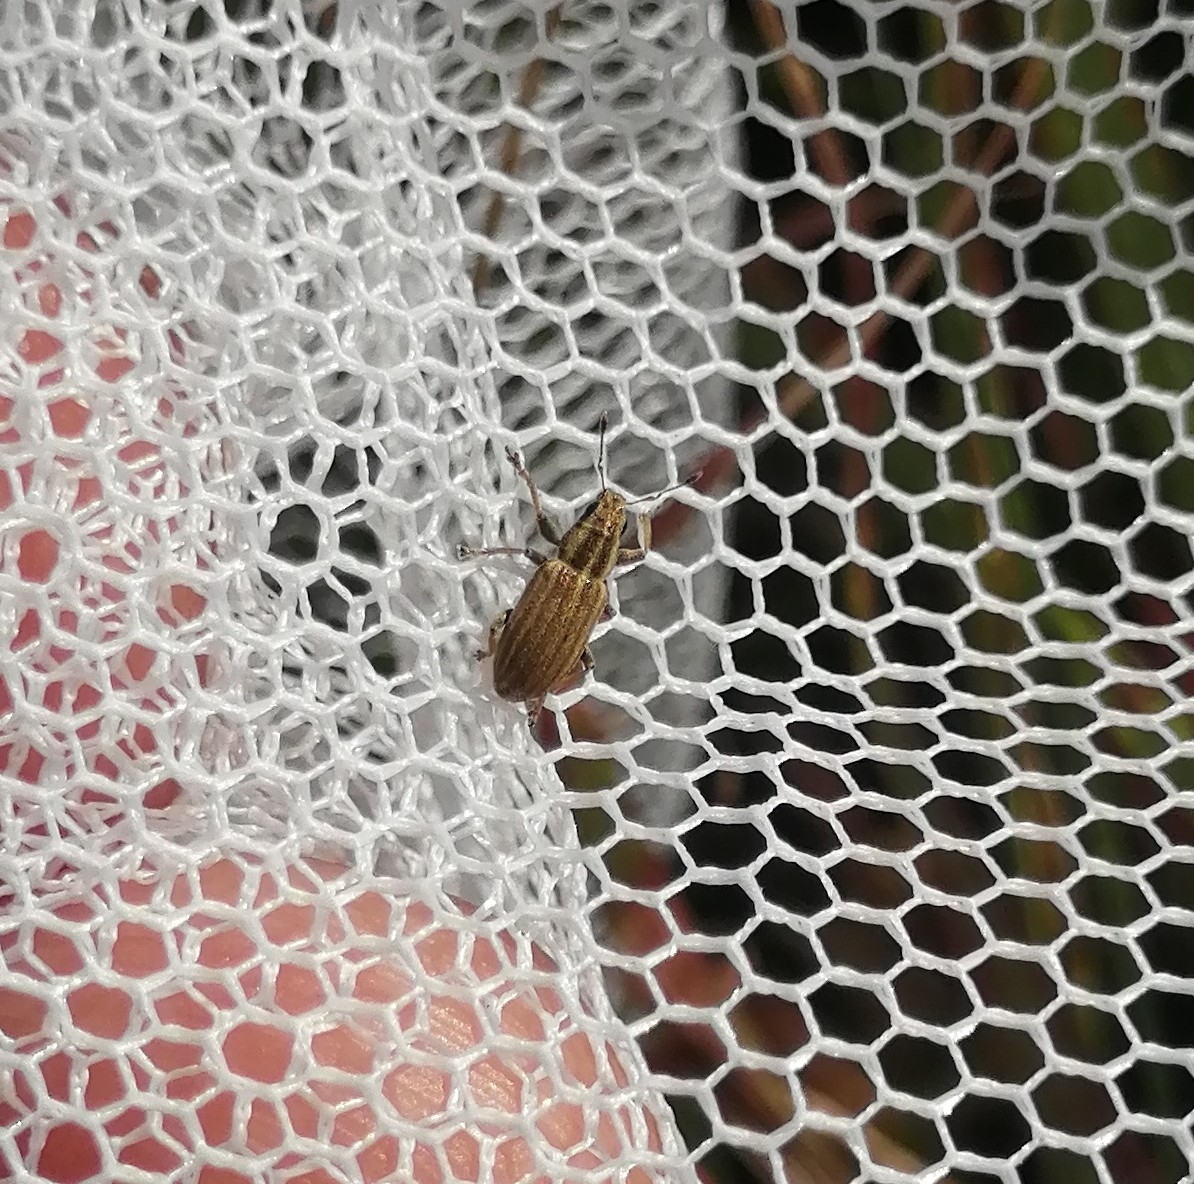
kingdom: Animalia
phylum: Arthropoda
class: Insecta
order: Coleoptera
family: Curculionidae
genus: Sitona
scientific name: Sitona lineatus
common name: Weevil
